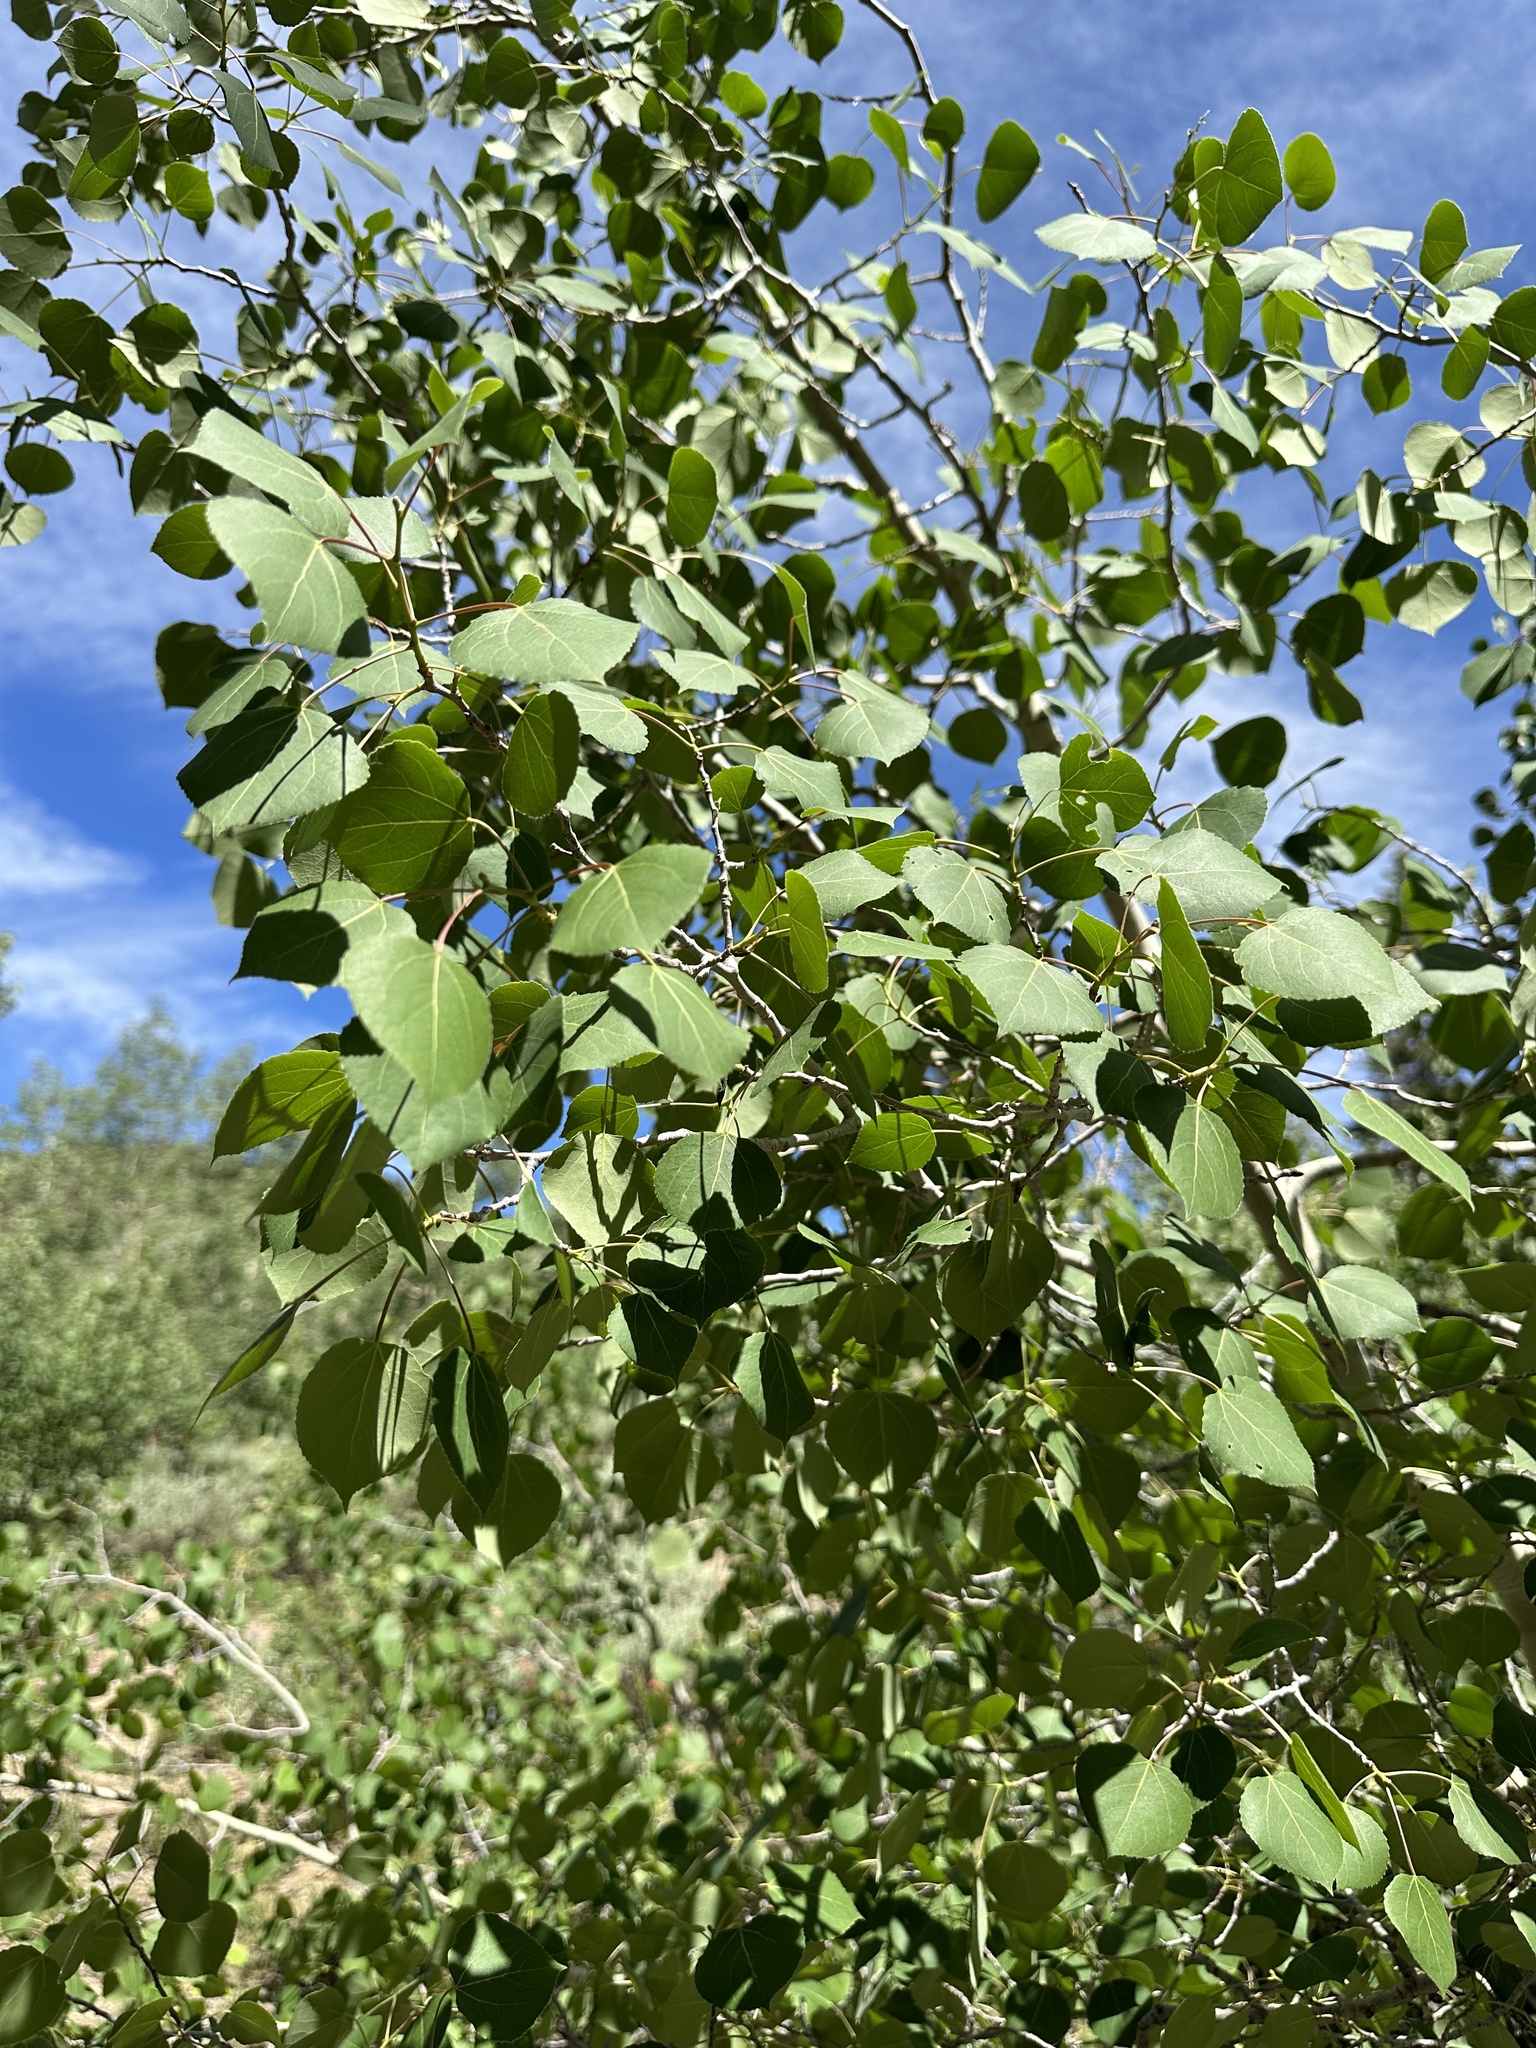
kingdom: Plantae
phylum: Tracheophyta
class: Magnoliopsida
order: Malpighiales
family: Salicaceae
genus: Populus
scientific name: Populus tremuloides
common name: Quaking aspen
